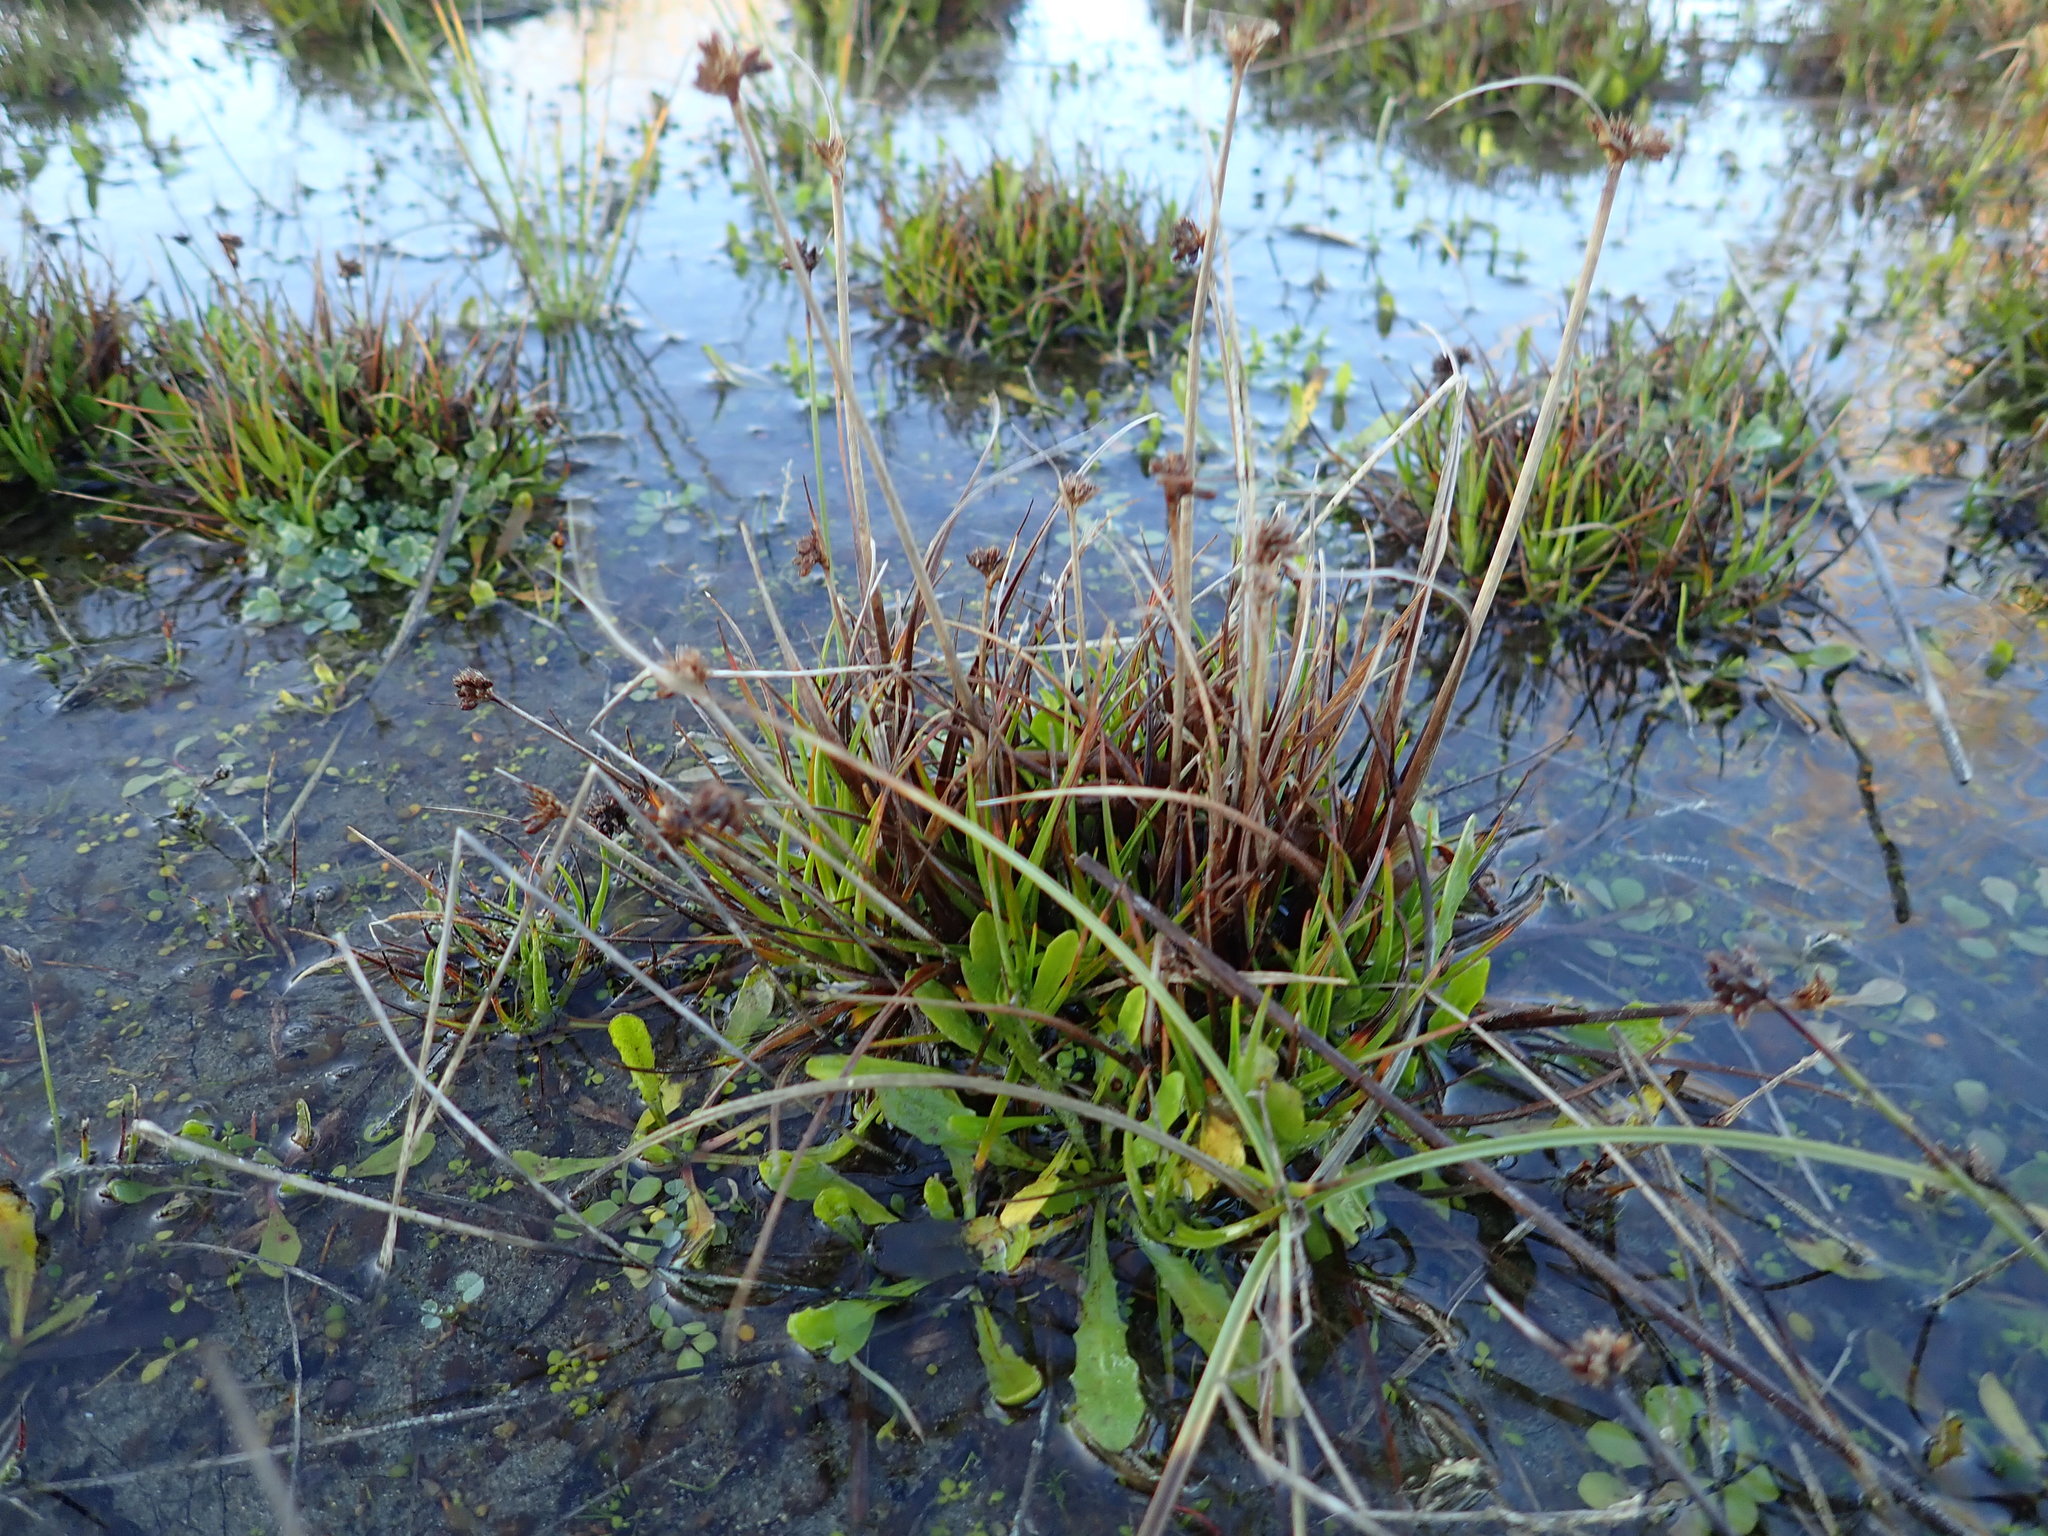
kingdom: Plantae
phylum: Tracheophyta
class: Liliopsida
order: Poales
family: Juncaceae
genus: Juncus
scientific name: Juncus caespiticius
